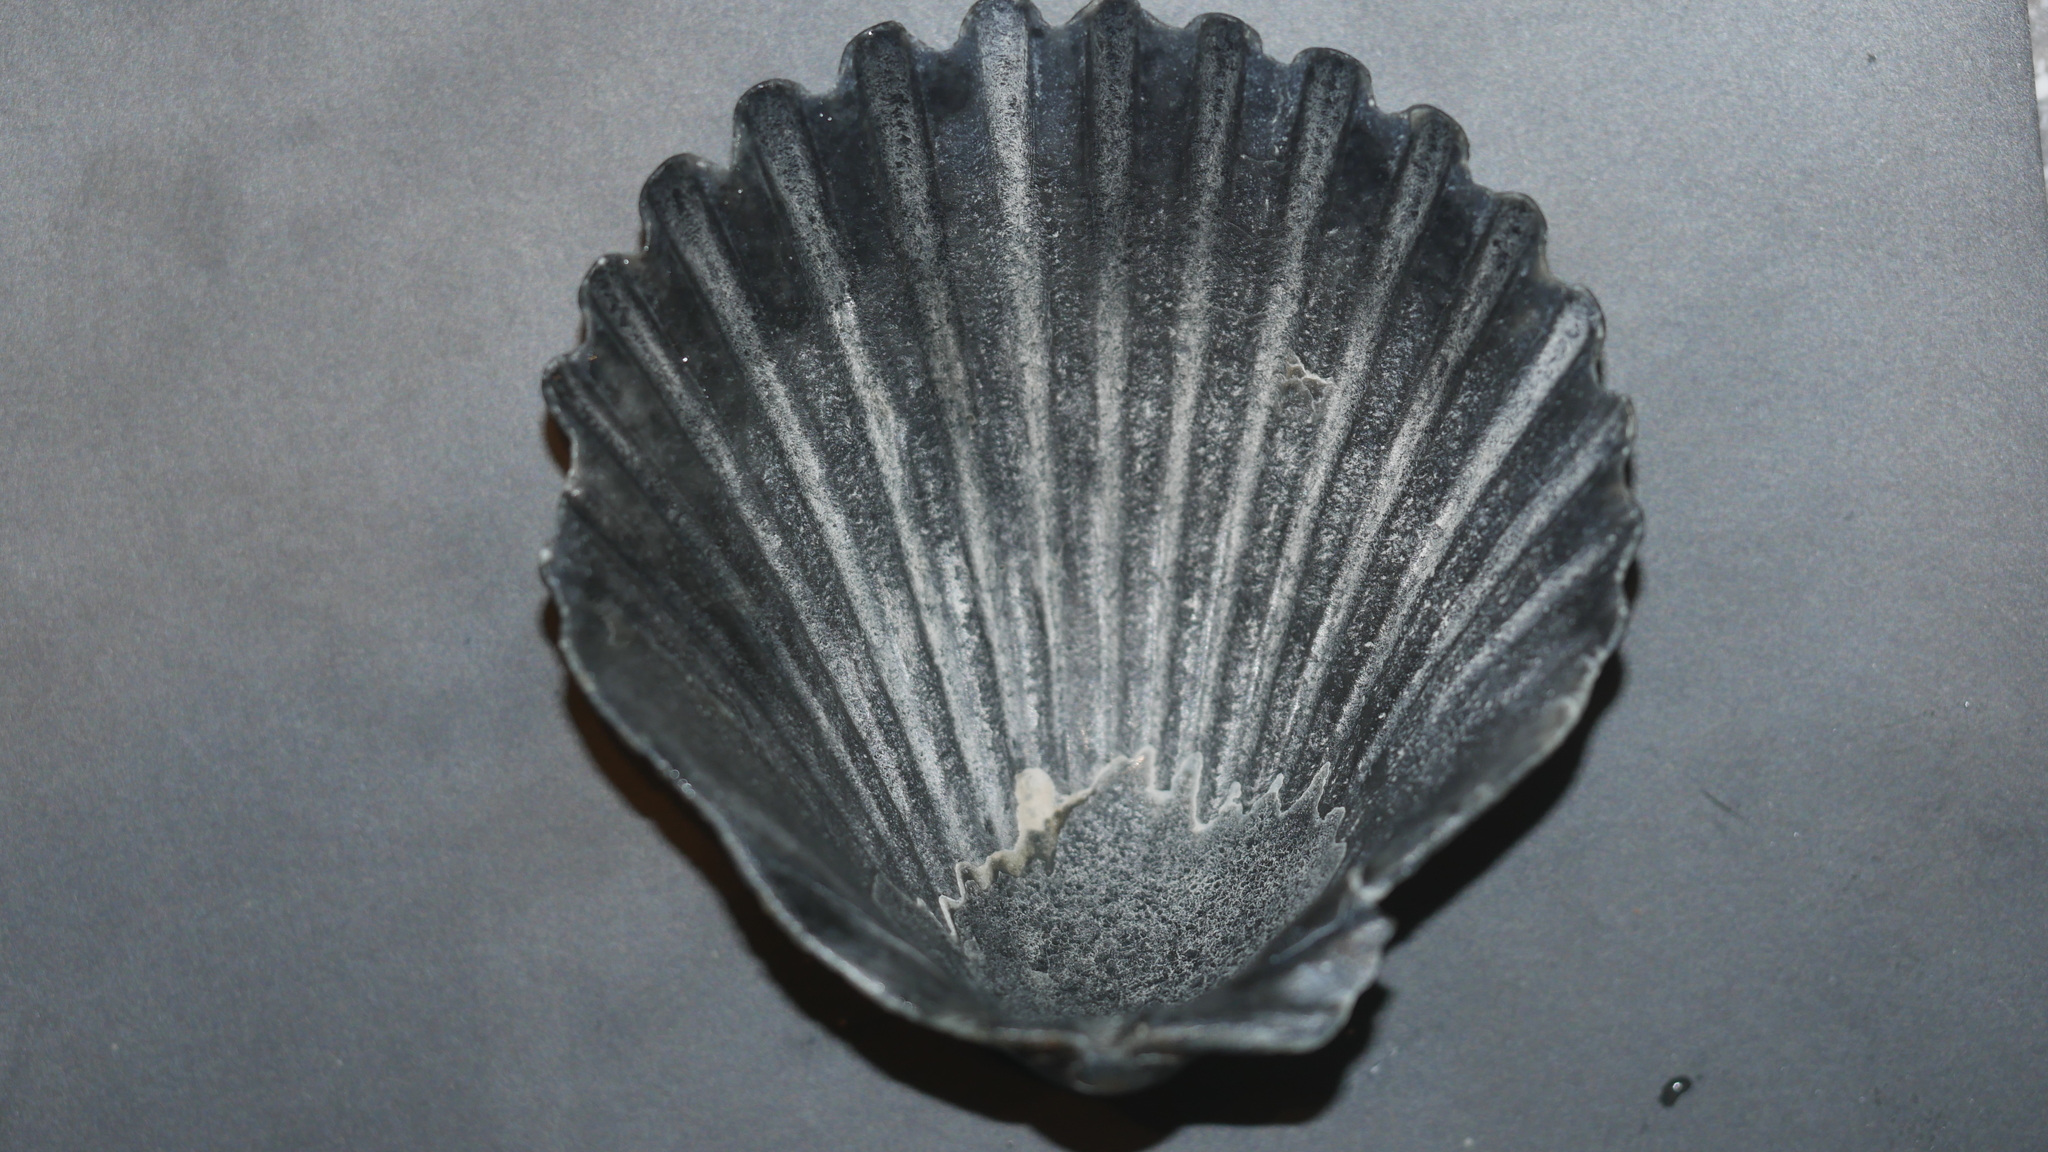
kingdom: Animalia
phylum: Mollusca
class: Bivalvia
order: Pectinida
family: Pectinidae
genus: Argopecten
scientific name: Argopecten irradians
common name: Atlantic bay scallop
